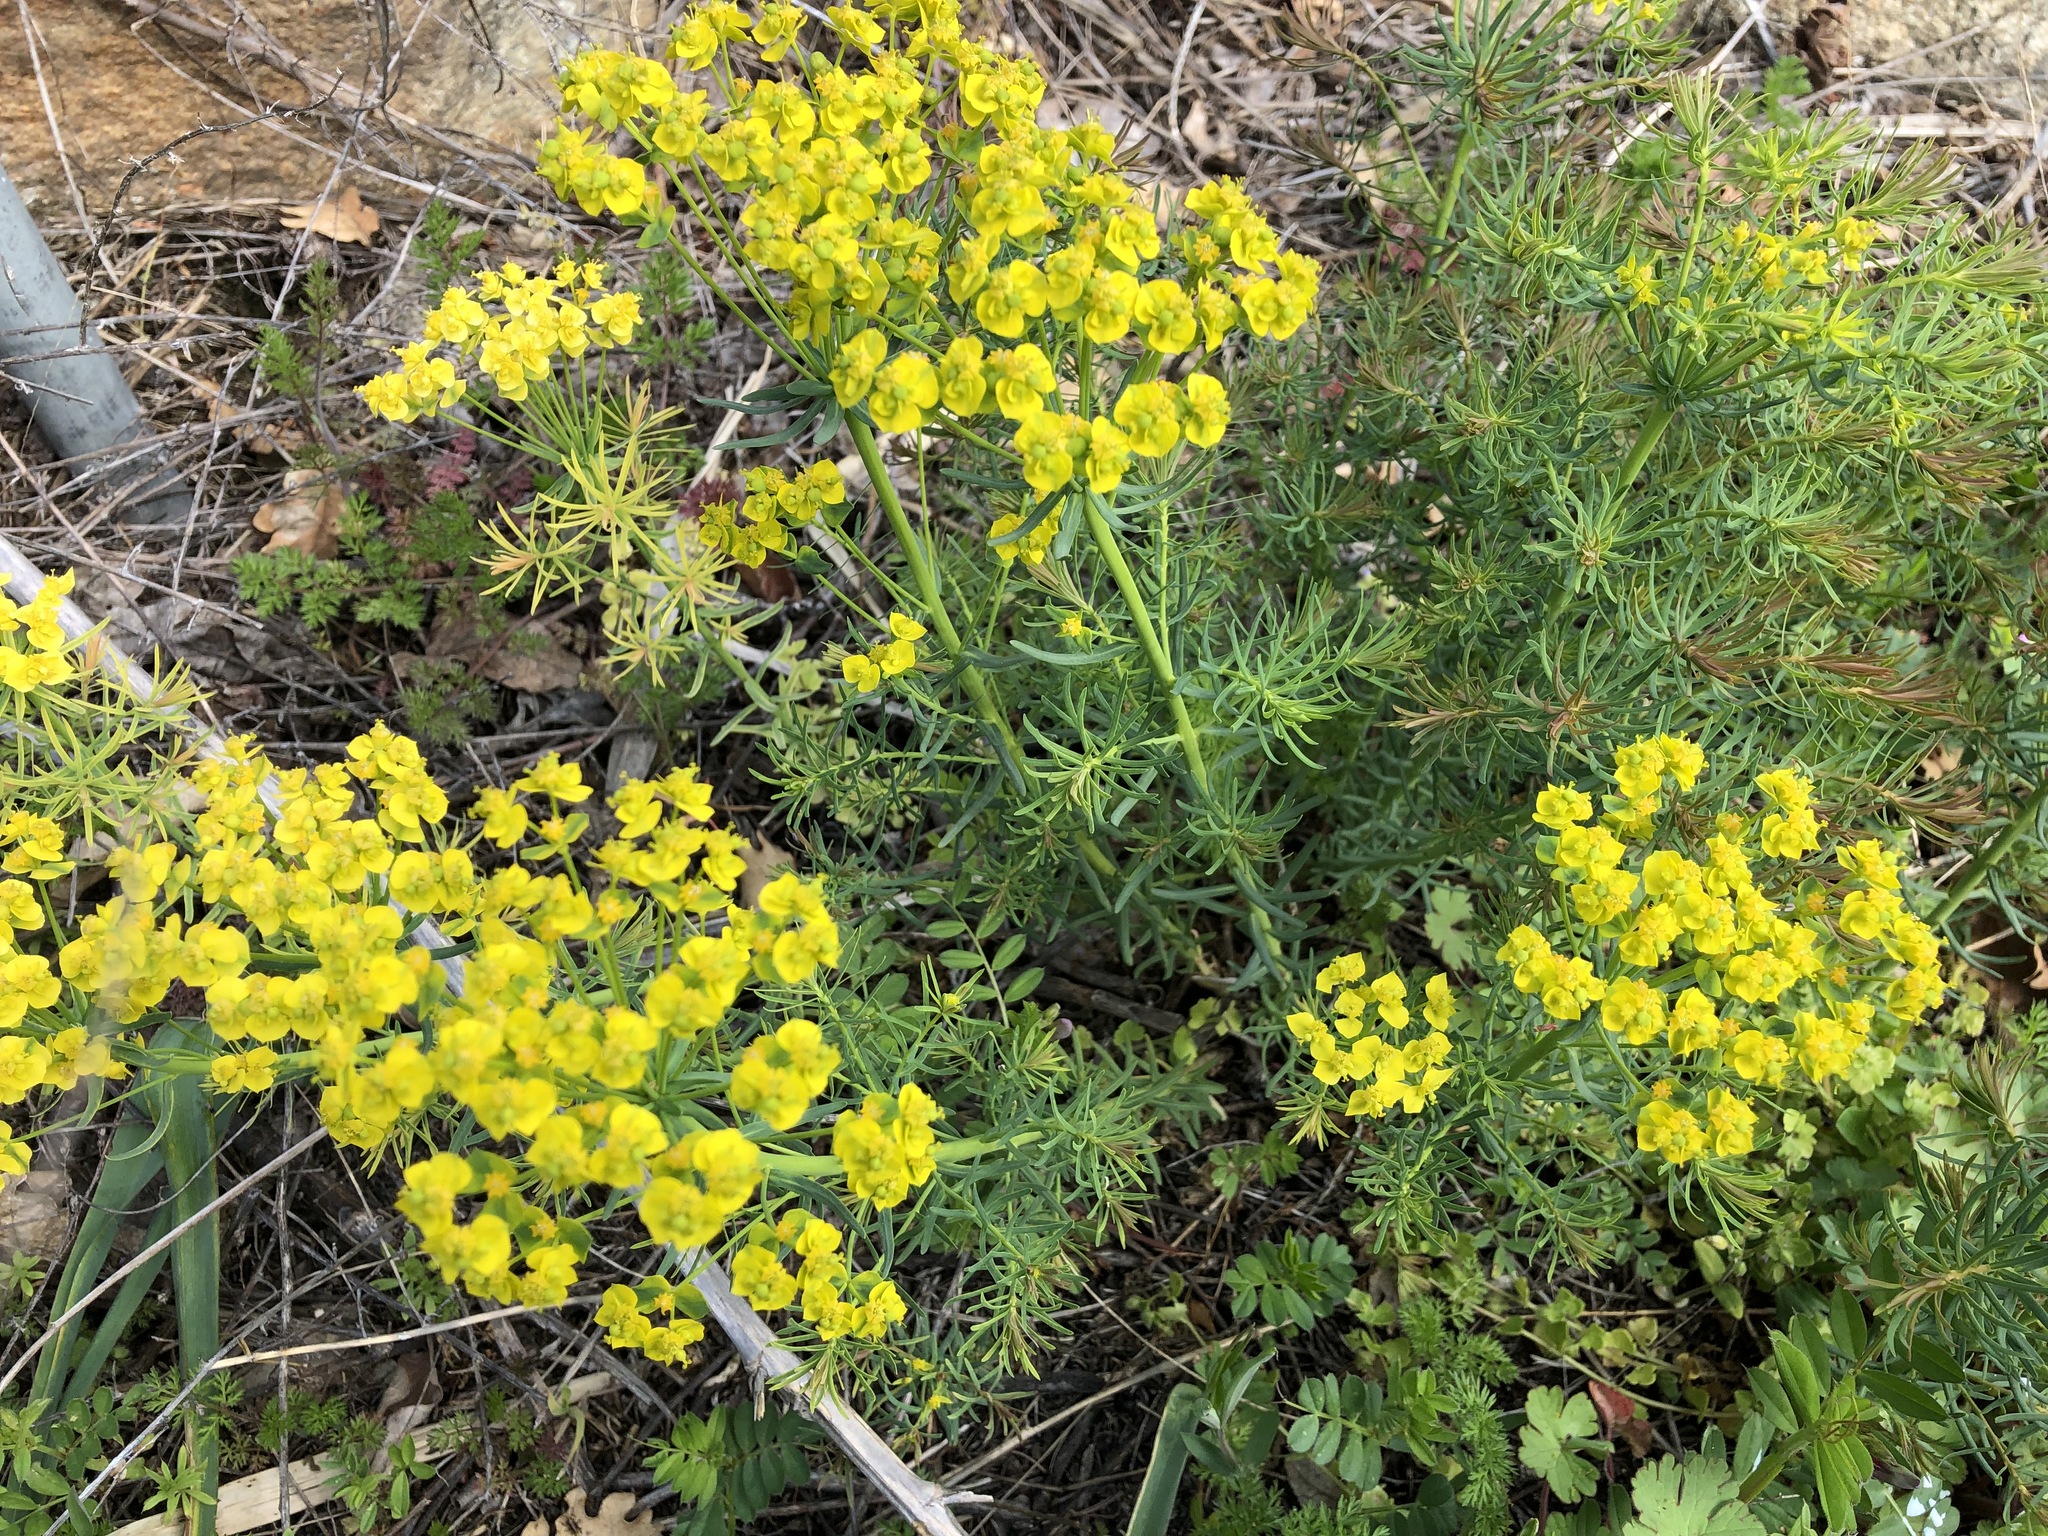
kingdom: Plantae
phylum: Tracheophyta
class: Magnoliopsida
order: Malpighiales
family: Euphorbiaceae
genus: Euphorbia
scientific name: Euphorbia cyparissias
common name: Cypress spurge
